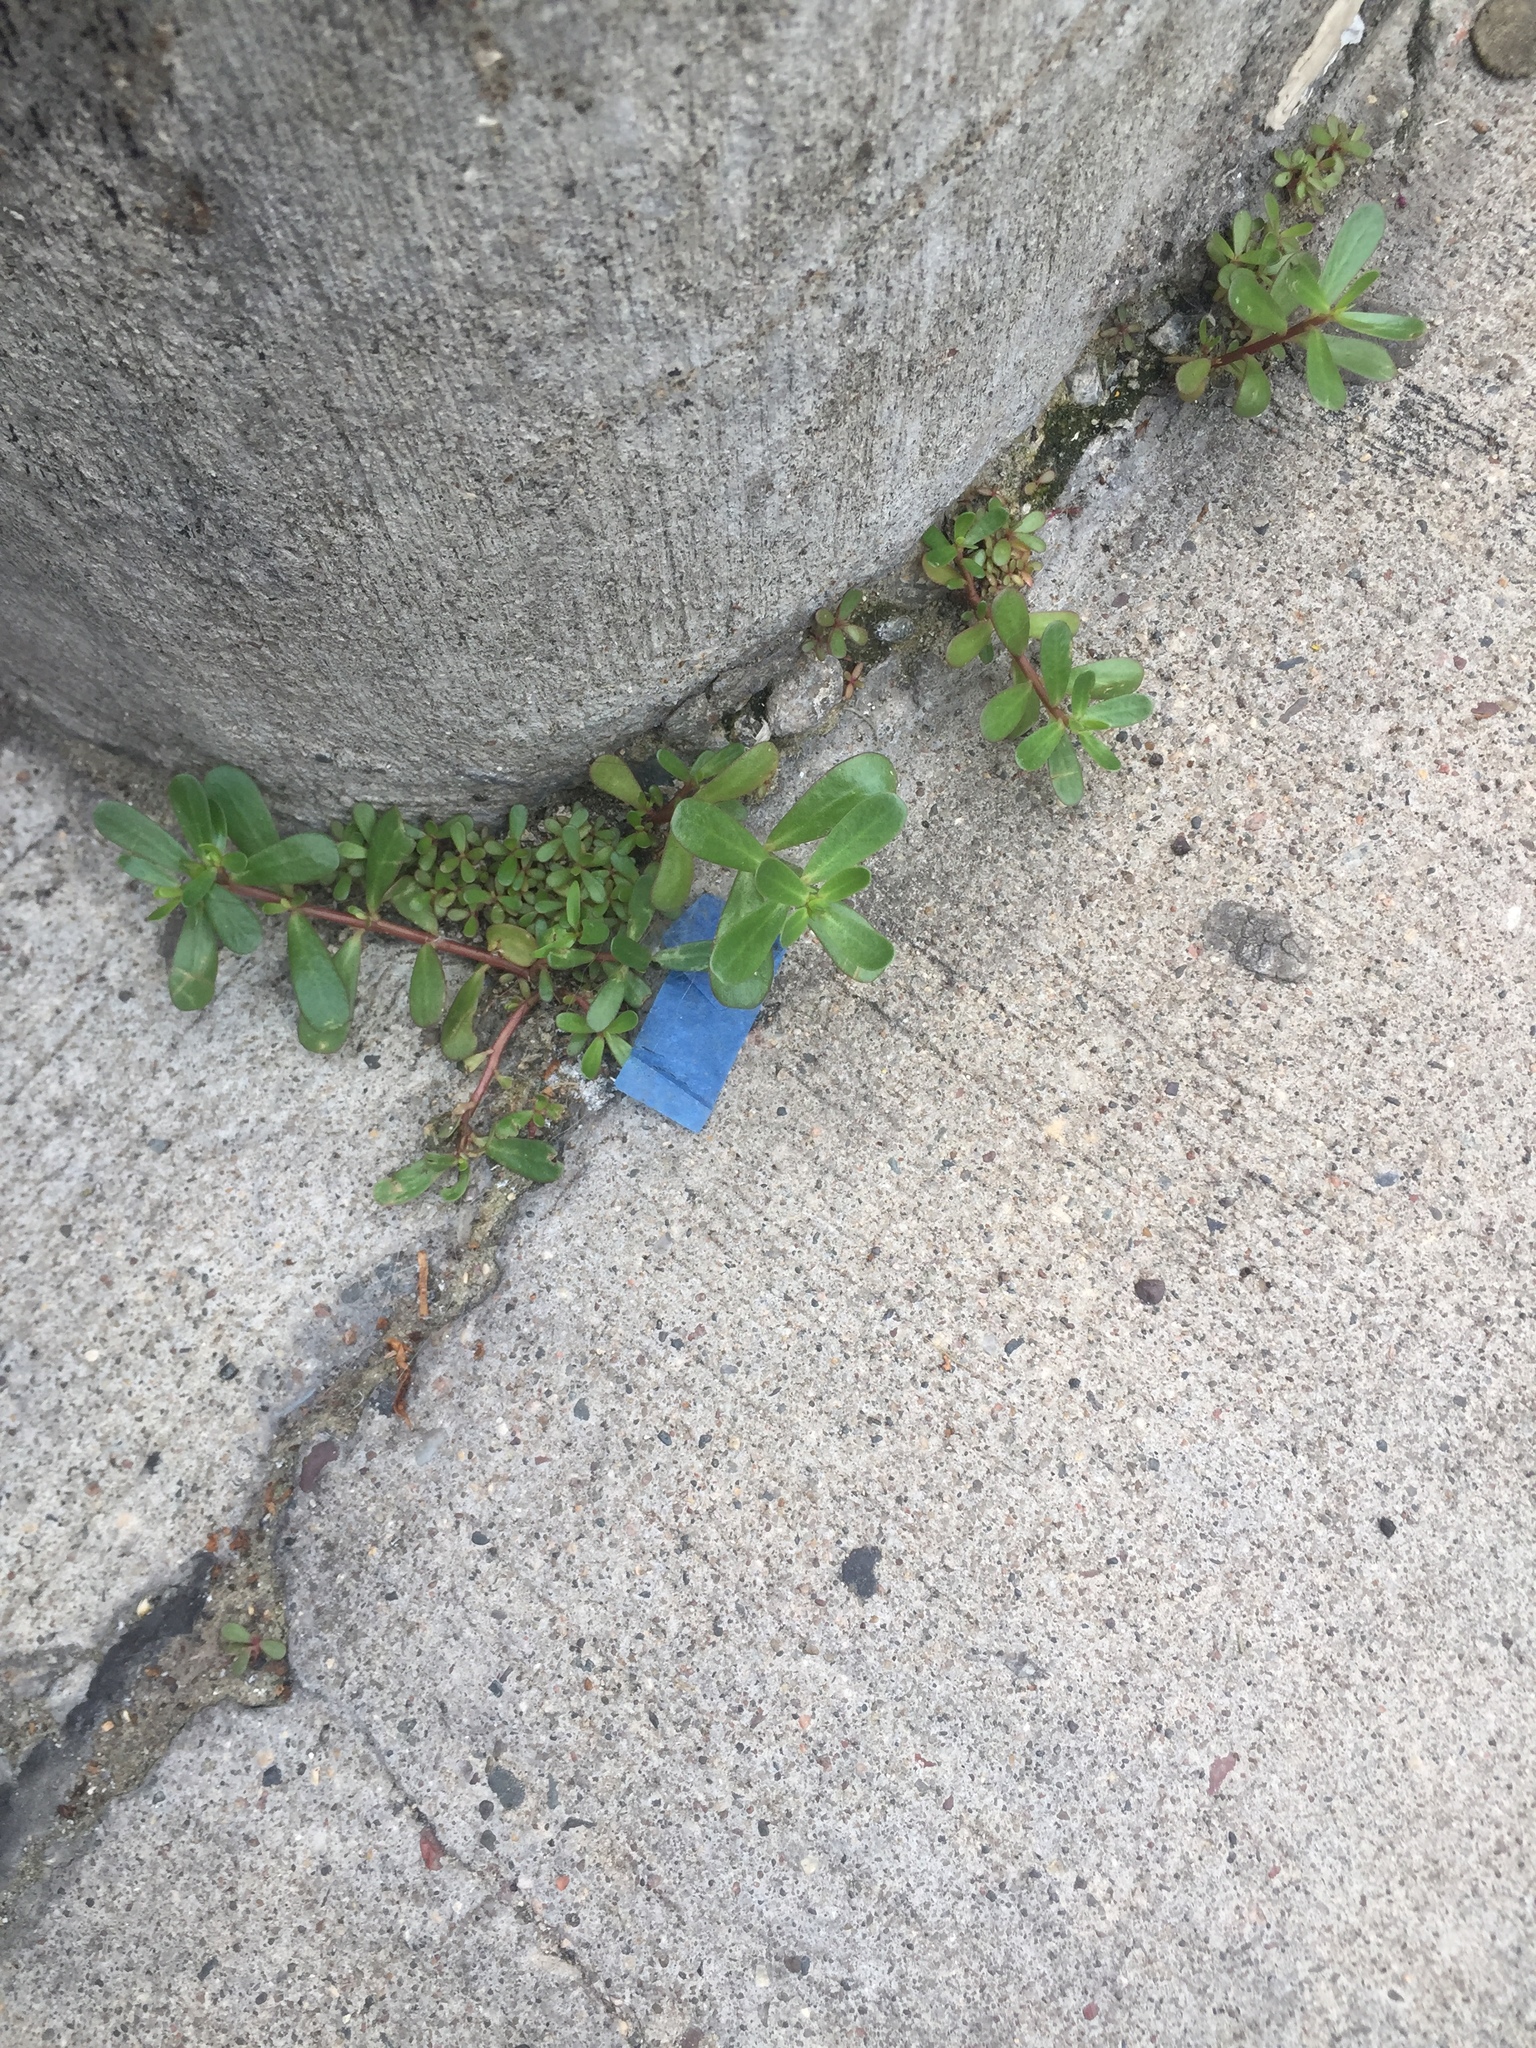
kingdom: Plantae
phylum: Tracheophyta
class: Magnoliopsida
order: Caryophyllales
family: Portulacaceae
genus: Portulaca
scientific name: Portulaca oleracea
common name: Common purslane
